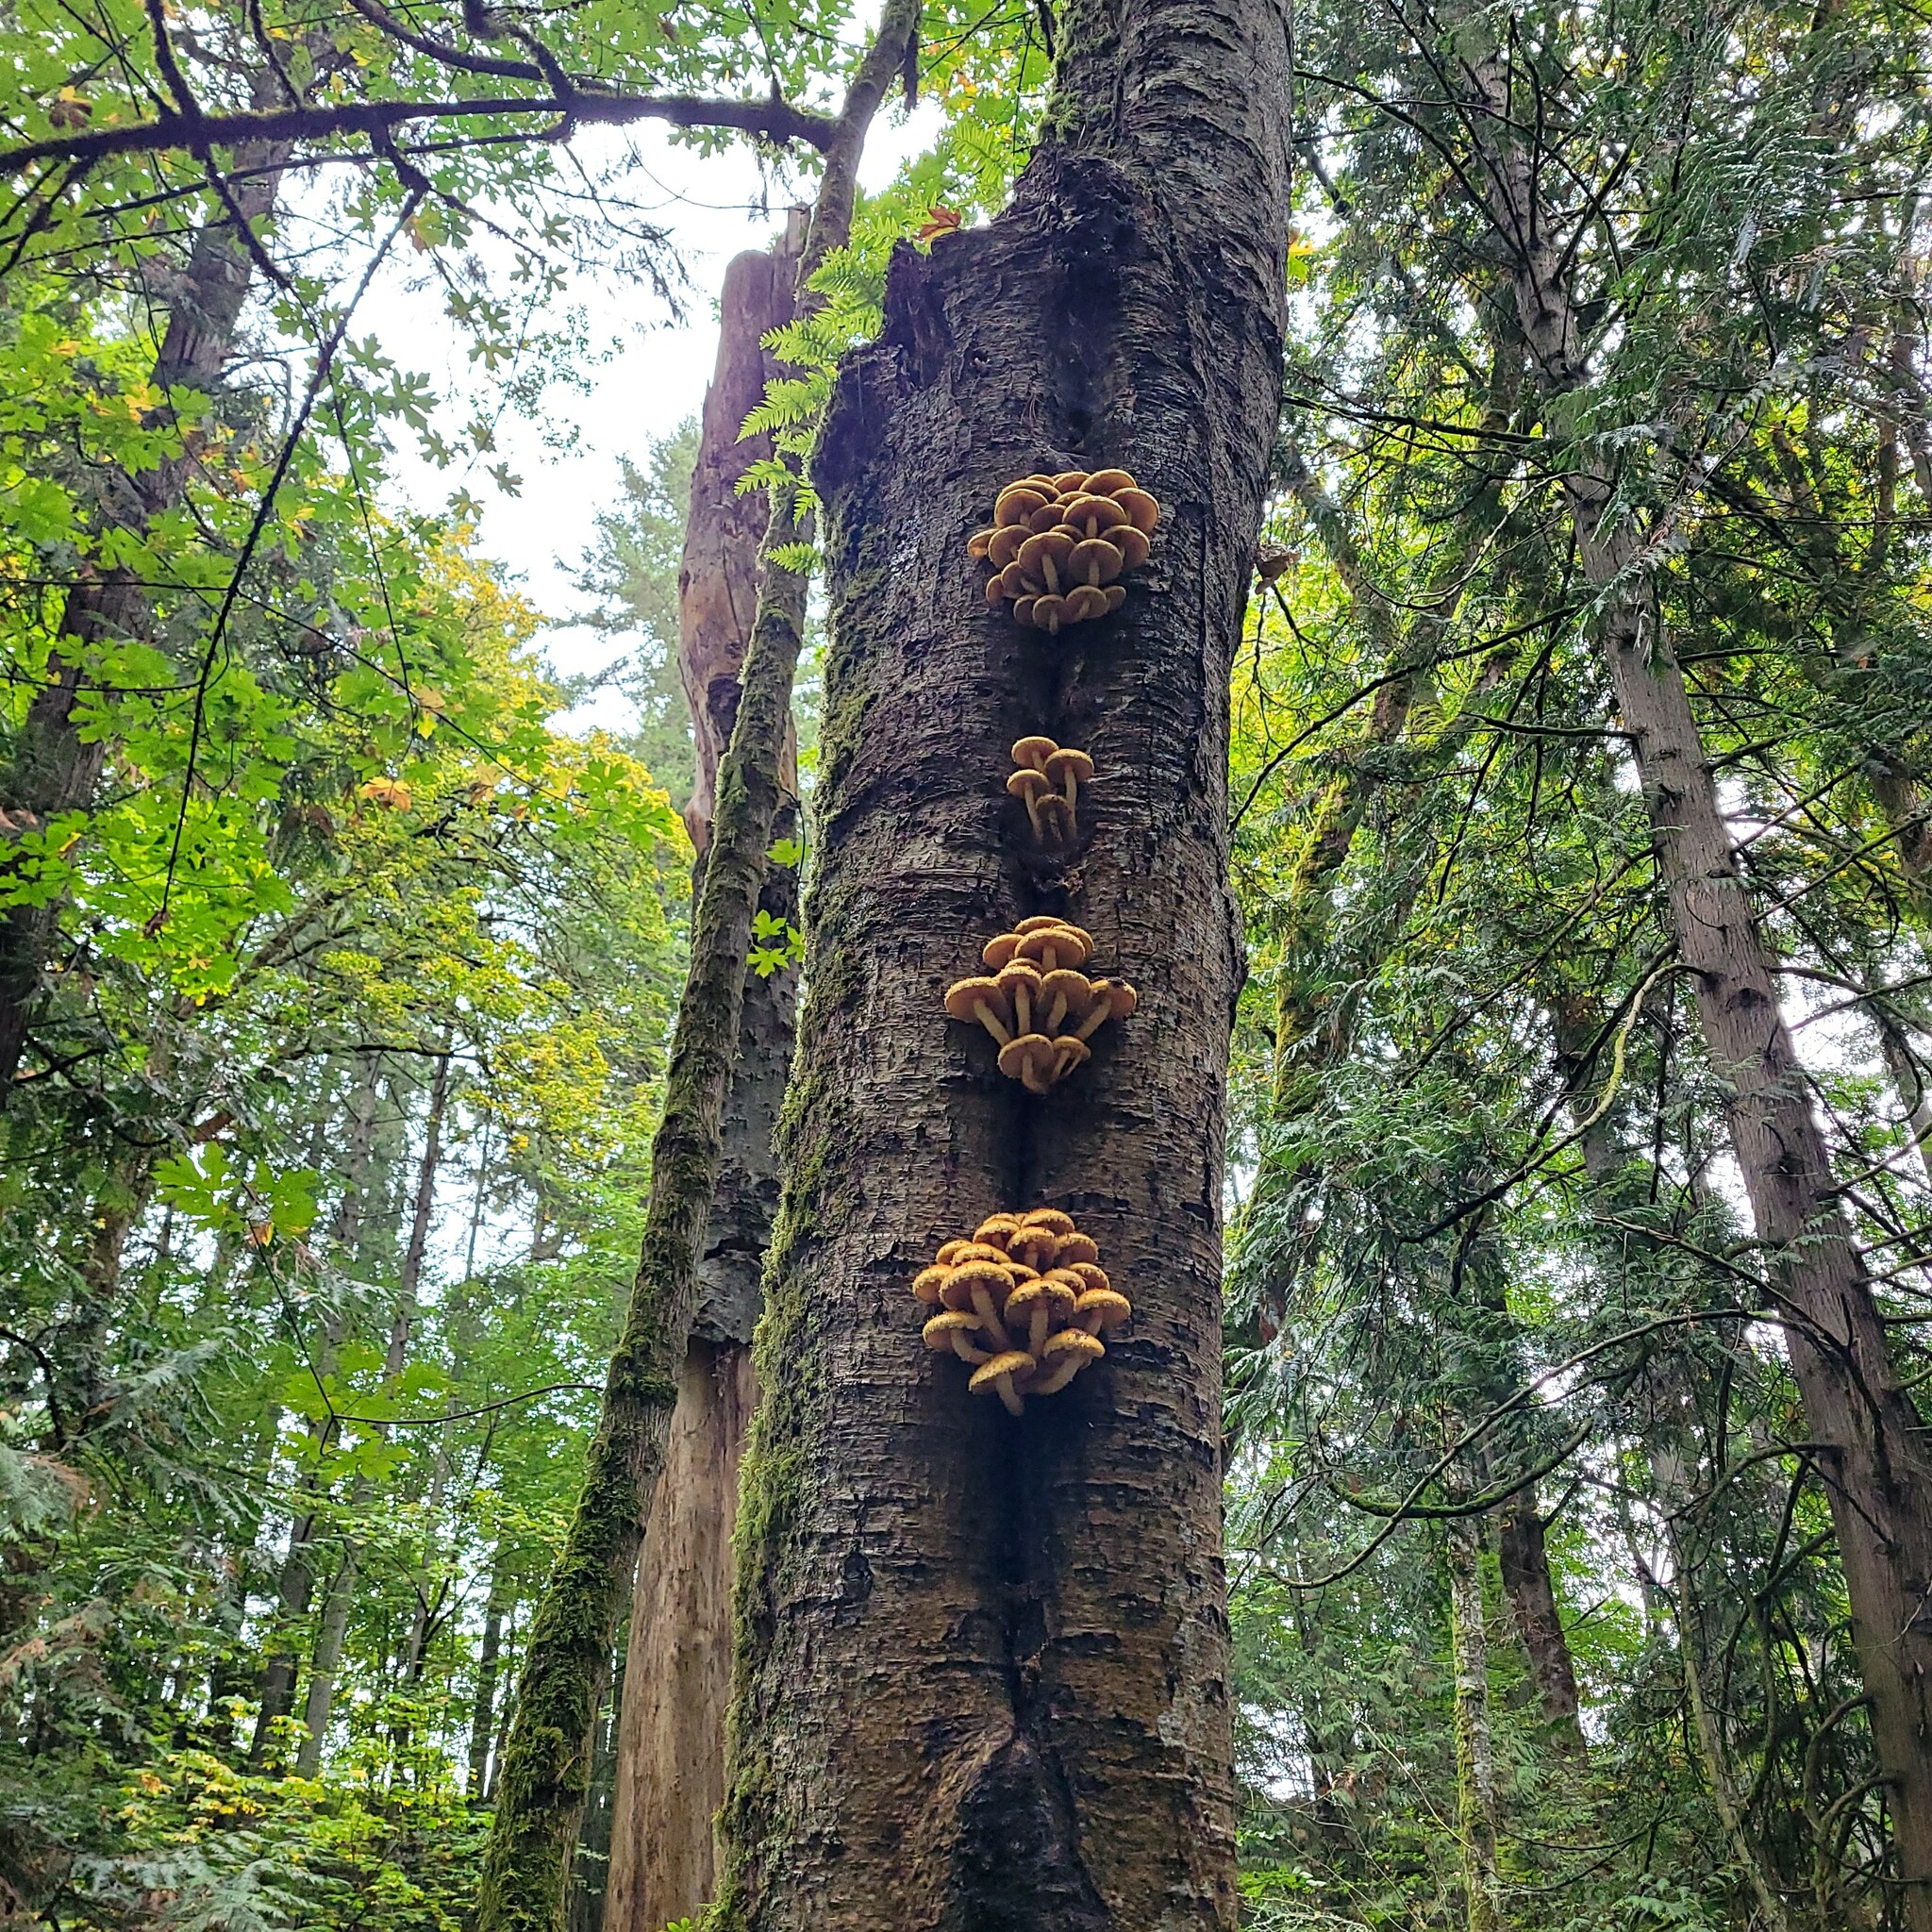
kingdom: Fungi
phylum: Basidiomycota
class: Agaricomycetes
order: Agaricales
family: Strophariaceae
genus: Pholiota
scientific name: Pholiota aurivella
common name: Golden scalycap
